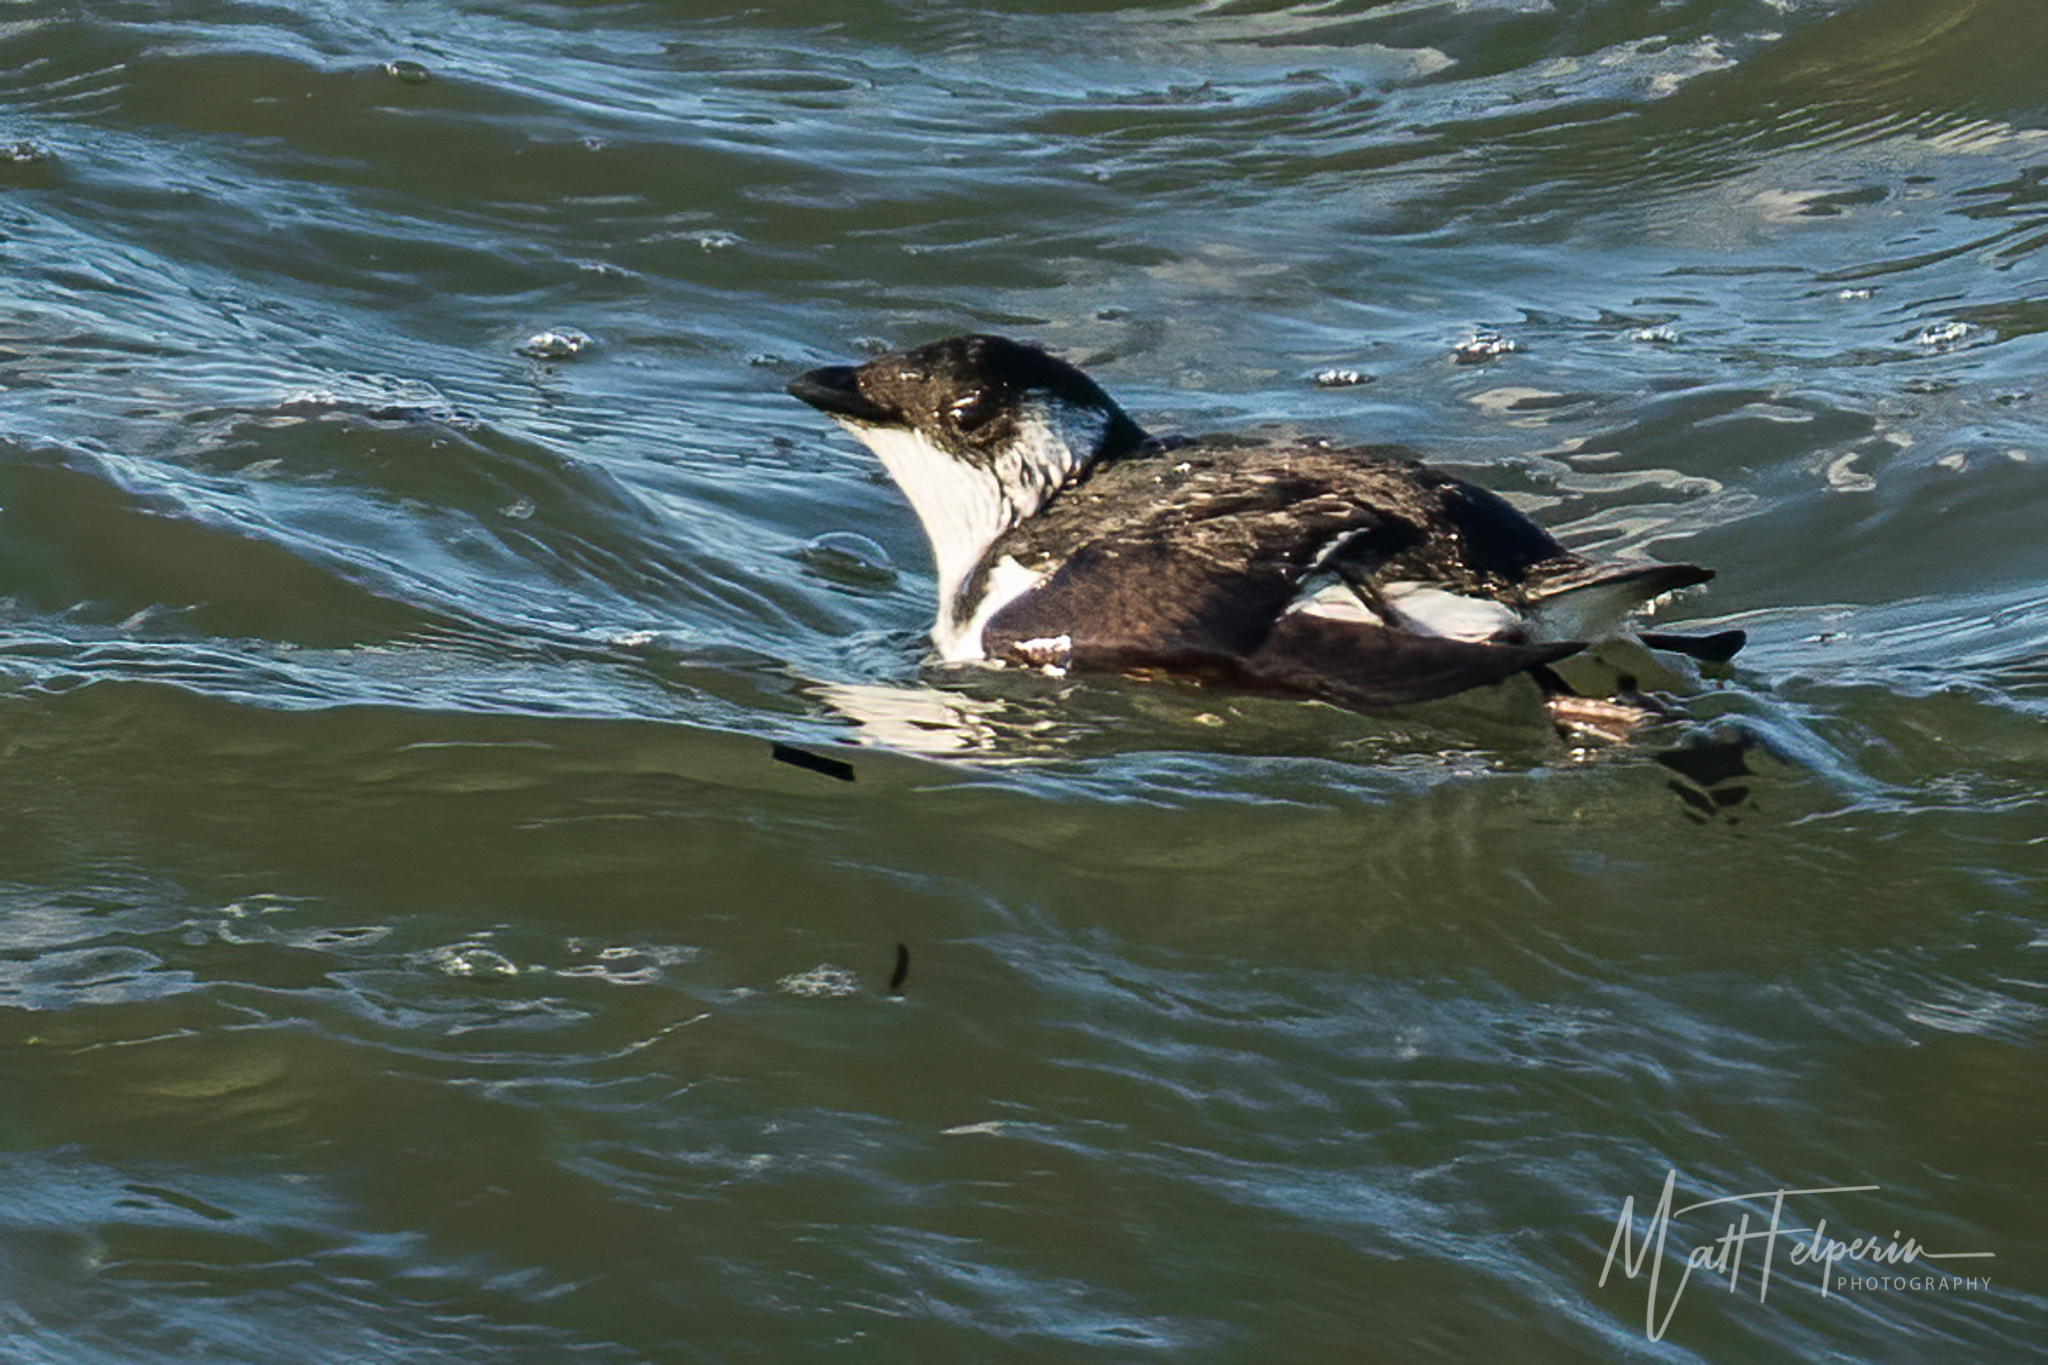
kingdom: Animalia
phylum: Chordata
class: Aves
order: Charadriiformes
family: Alcidae
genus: Alle
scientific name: Alle alle
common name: Little auk
